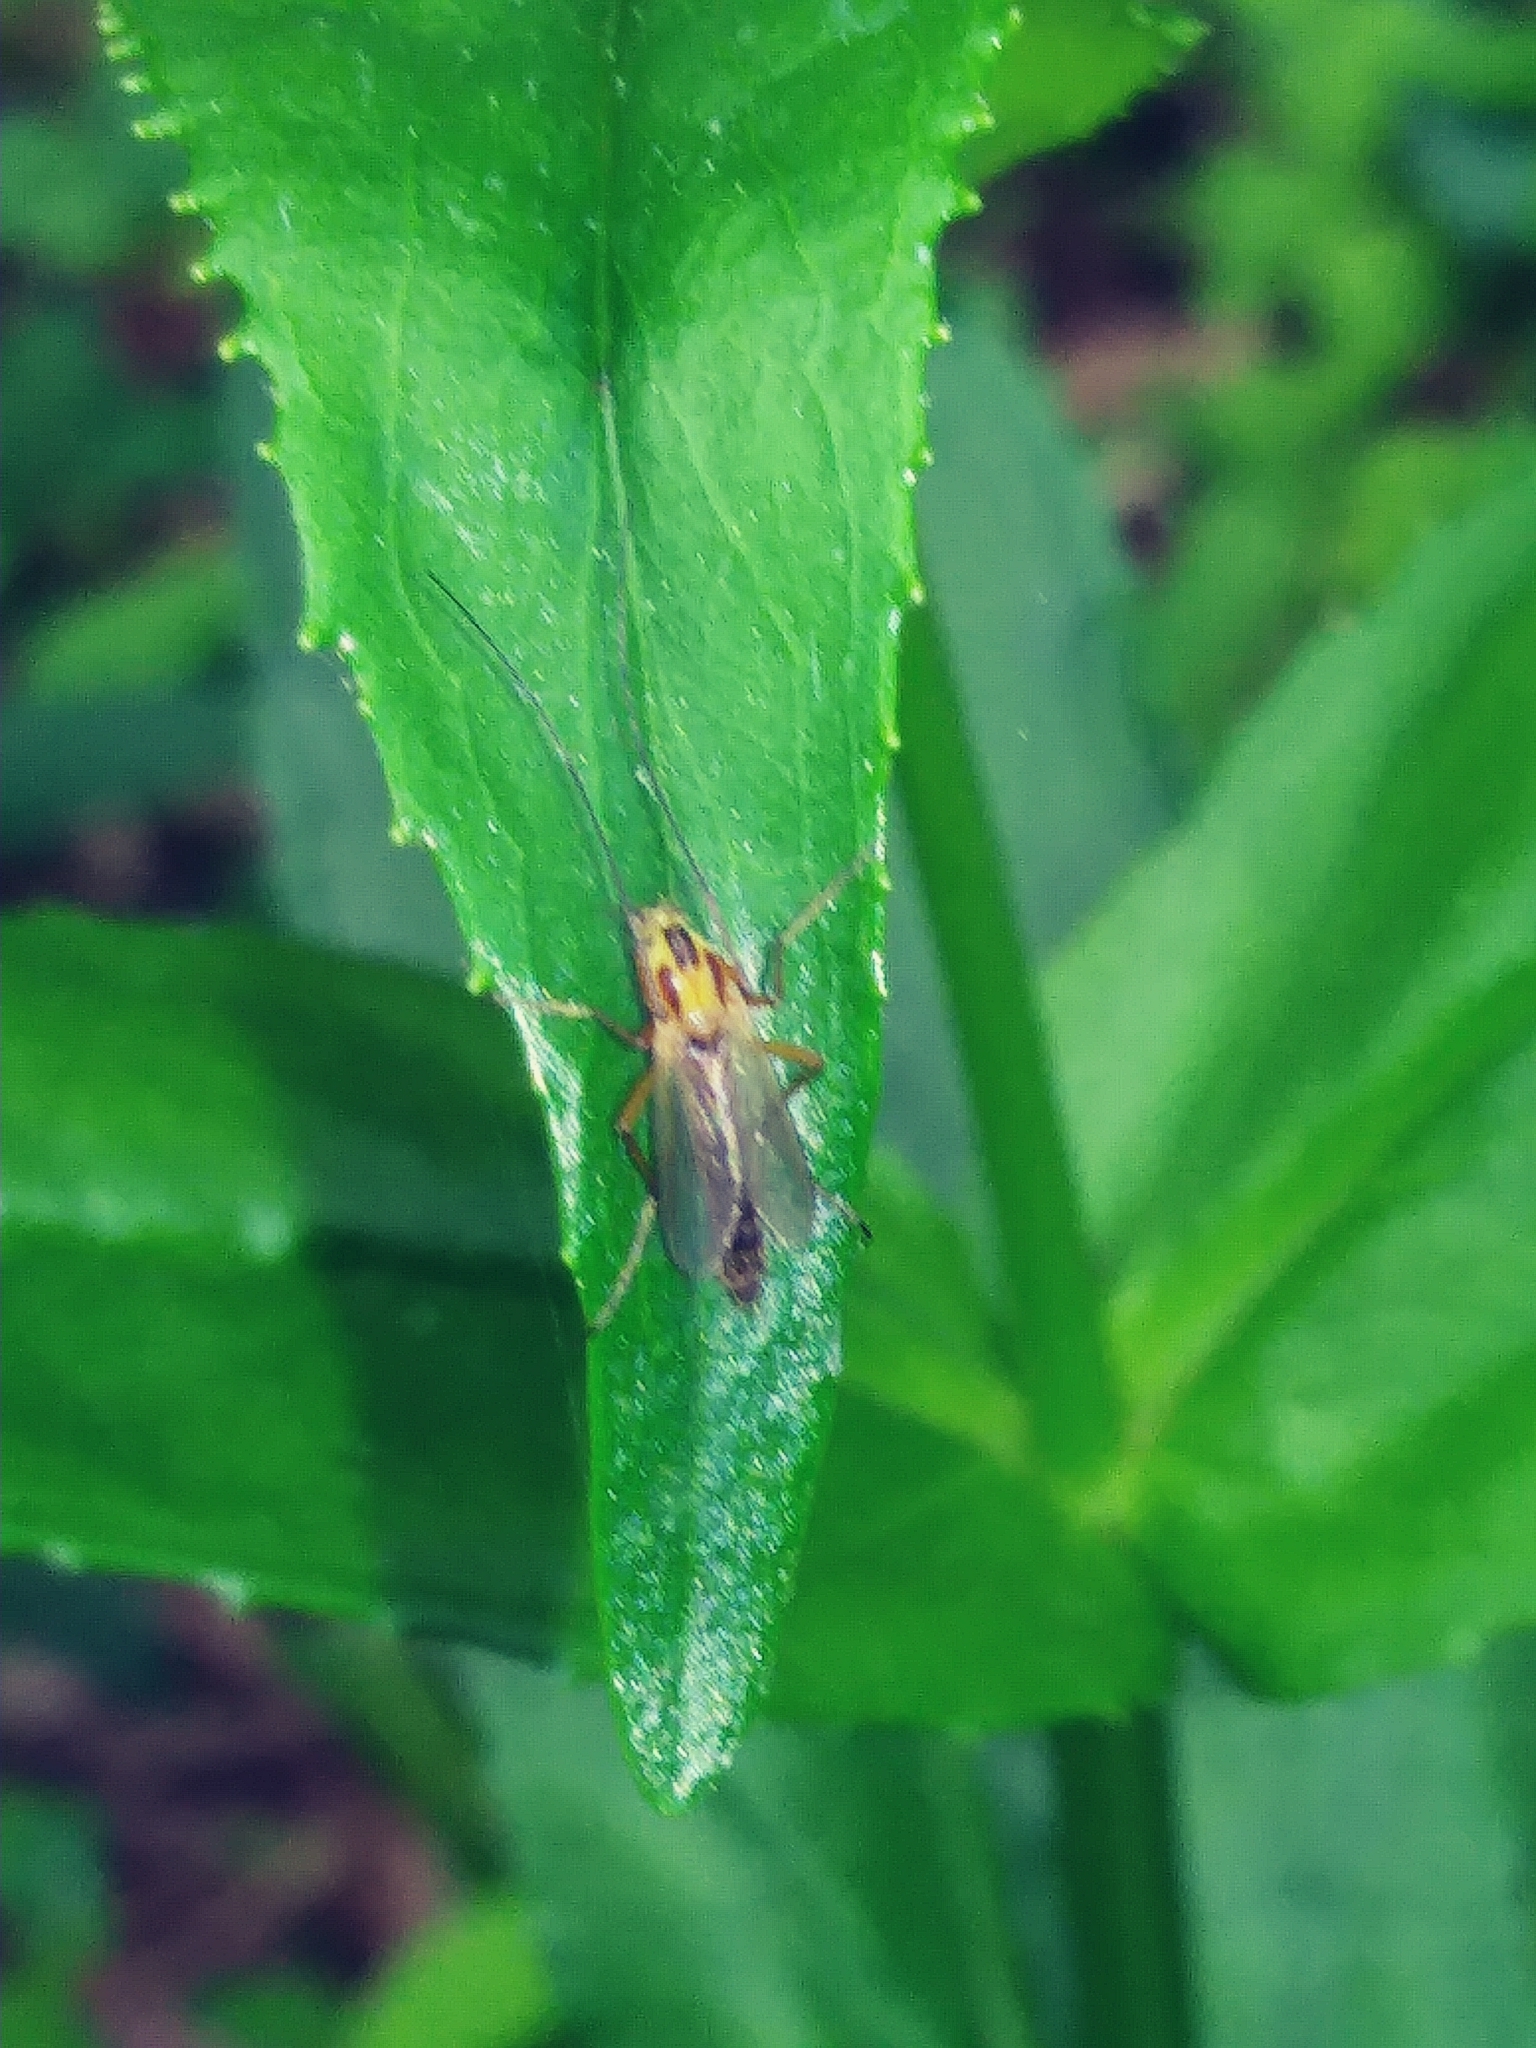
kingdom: Animalia
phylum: Arthropoda
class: Insecta
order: Diptera
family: Chironomidae
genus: Chironomus
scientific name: Chironomus ochreatus
